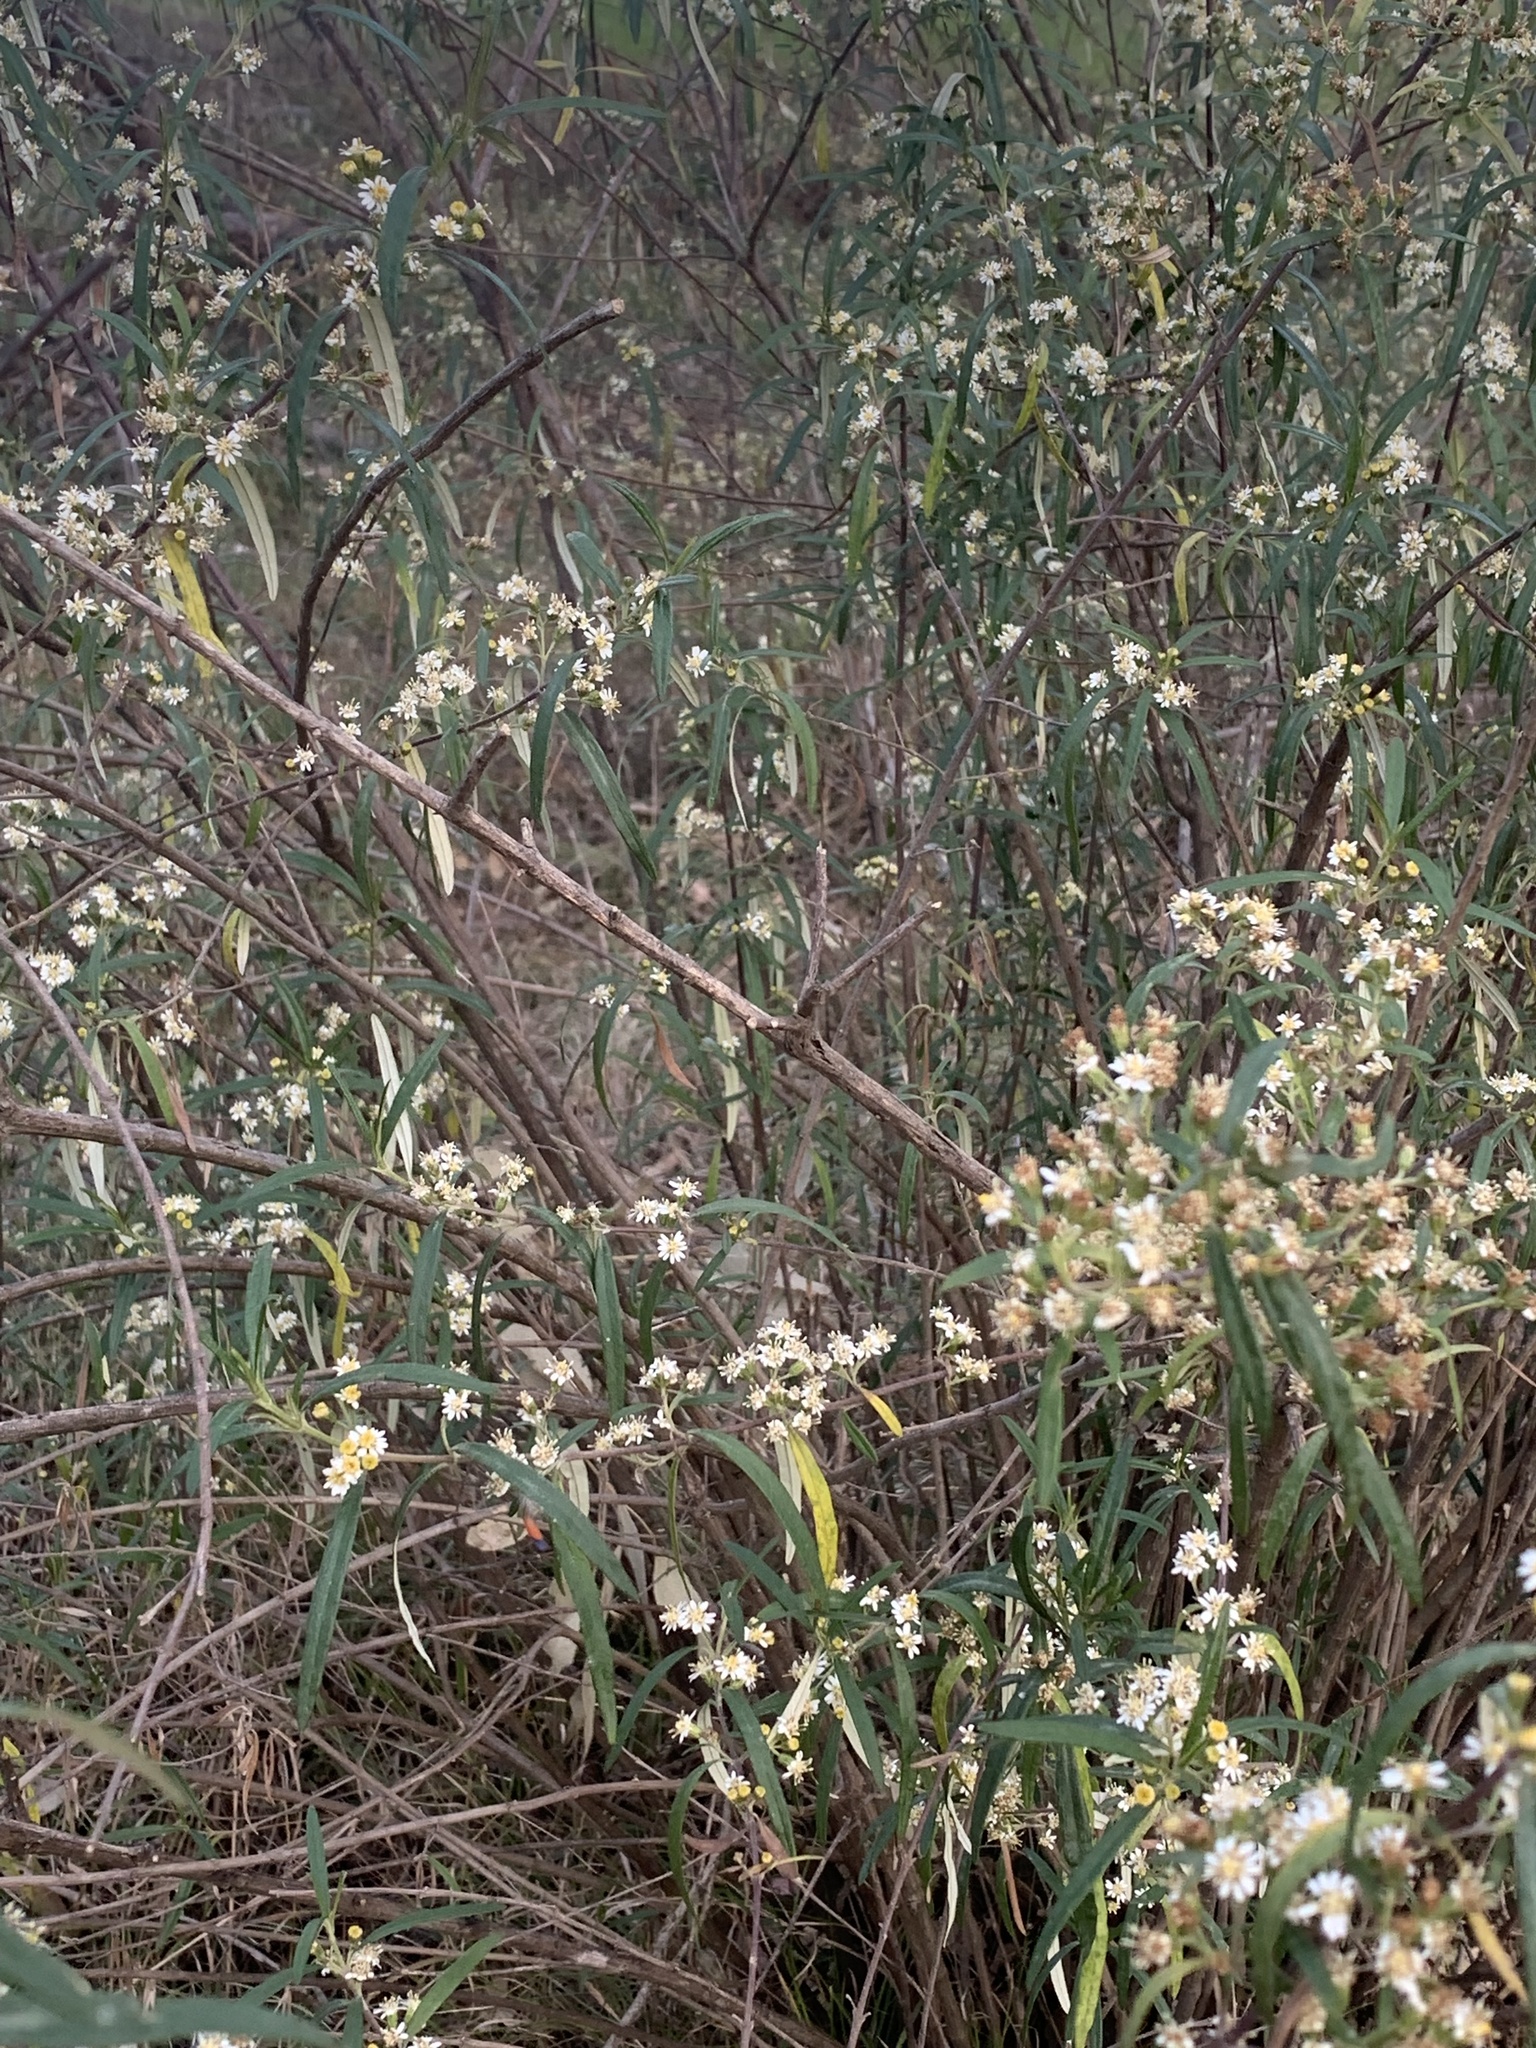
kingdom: Plantae
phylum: Tracheophyta
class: Magnoliopsida
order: Asterales
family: Asteraceae
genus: Olearia
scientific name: Olearia viscidula
